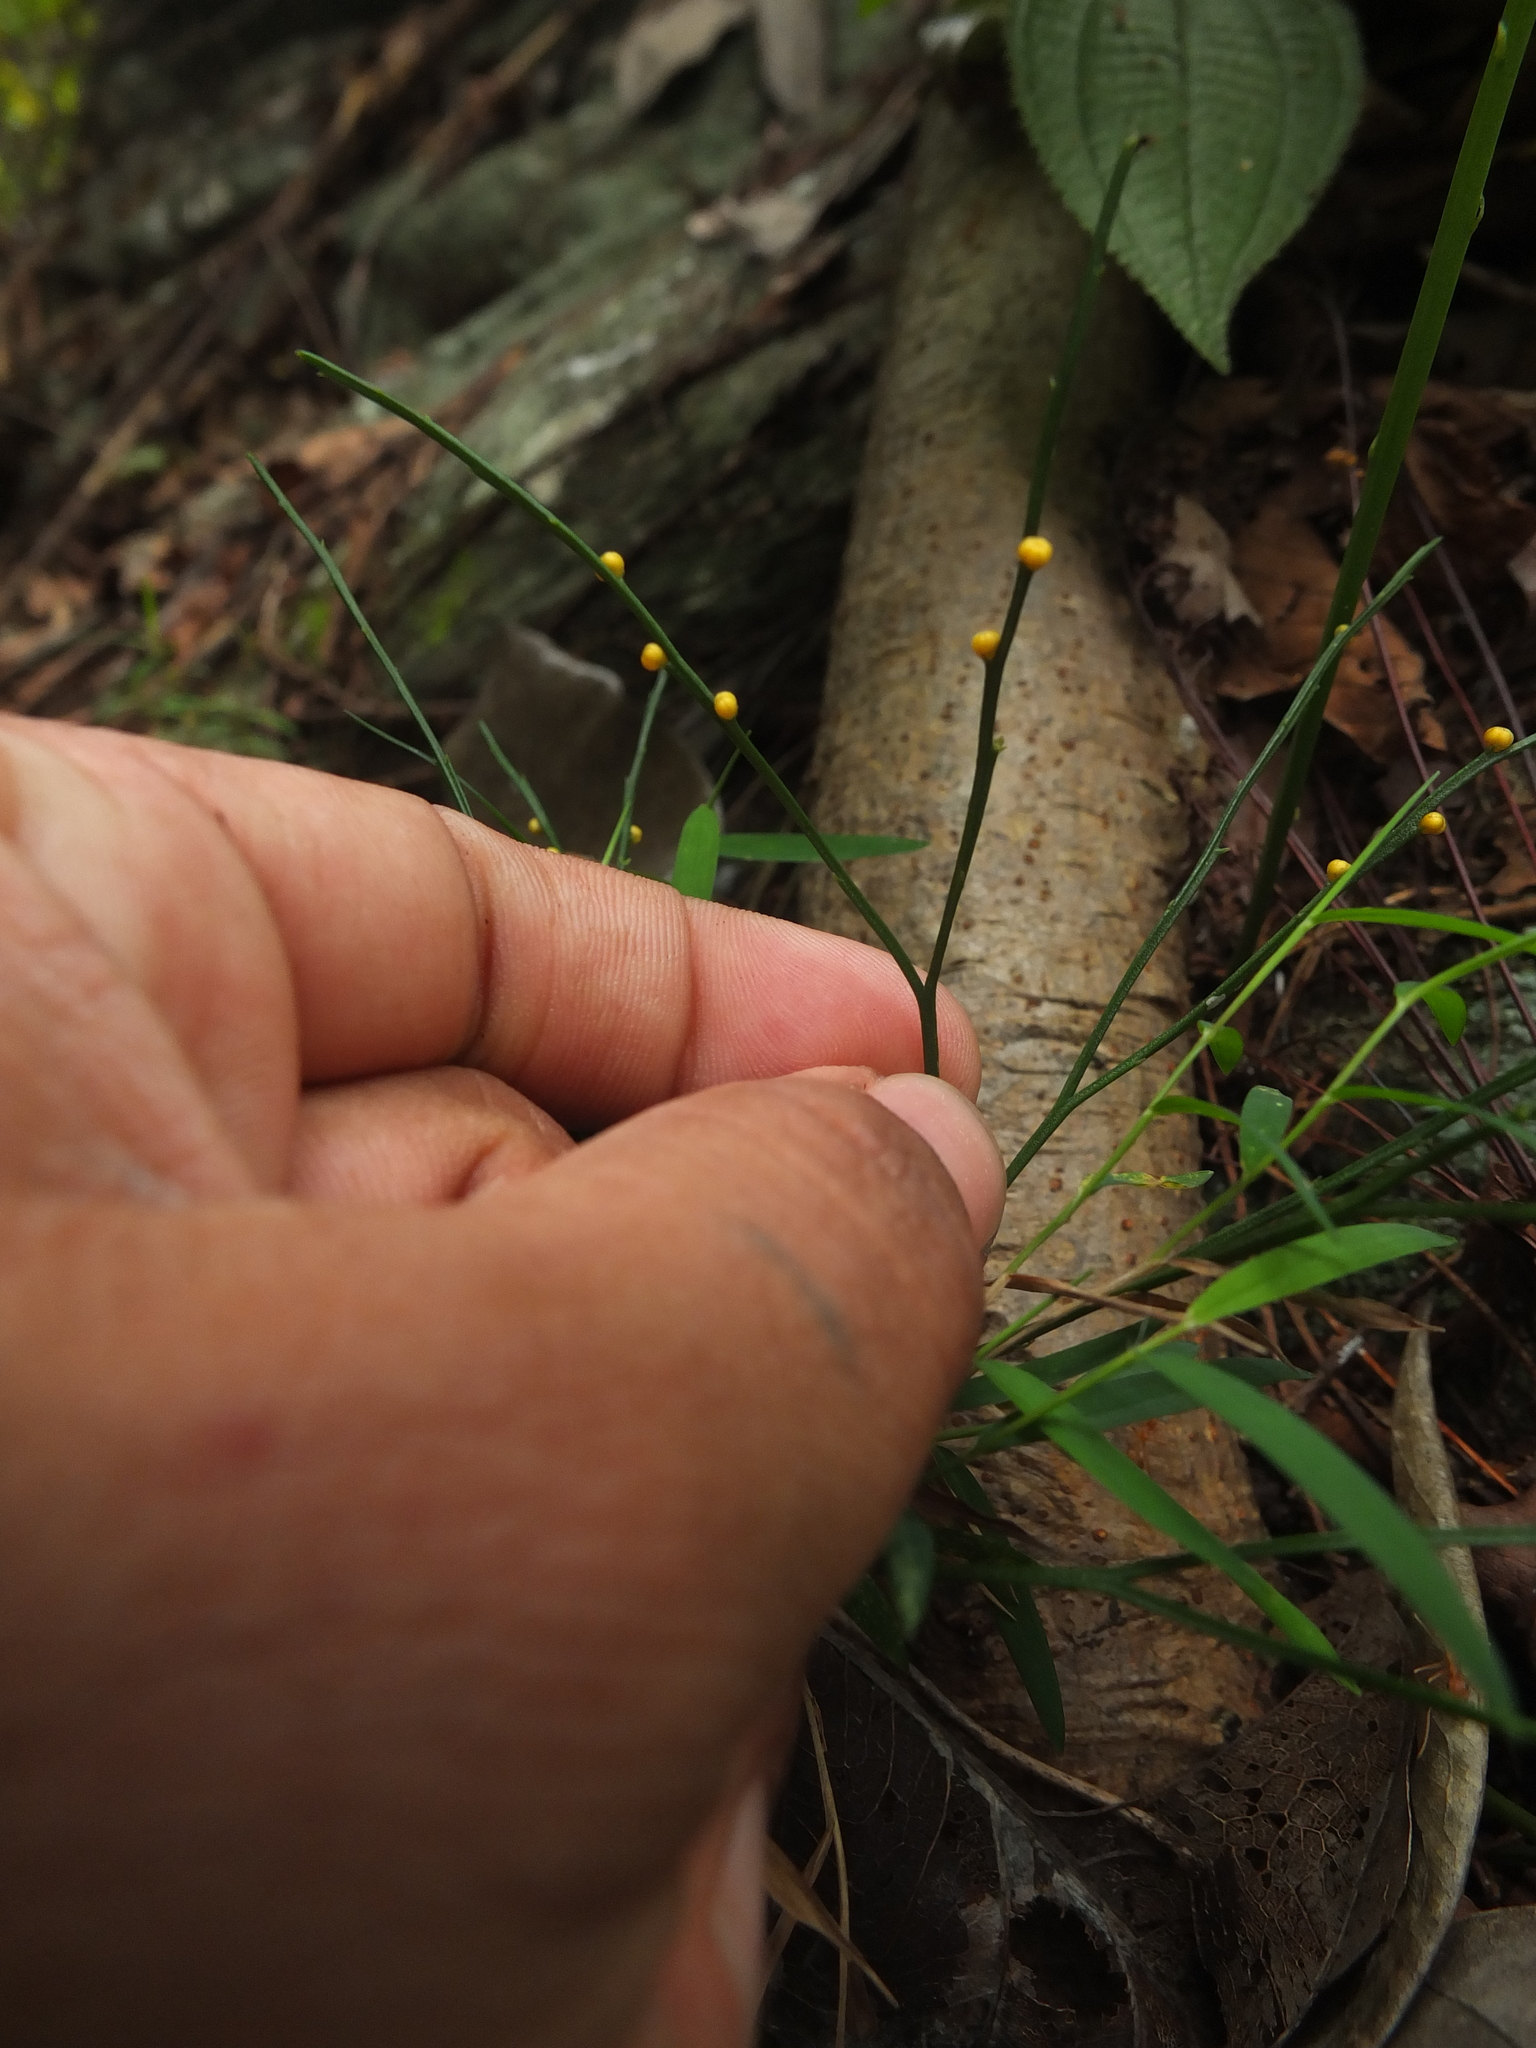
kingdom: Plantae
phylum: Tracheophyta
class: Polypodiopsida
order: Psilotales
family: Psilotaceae
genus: Psilotum
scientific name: Psilotum nudum
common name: Skeleton fork fern
